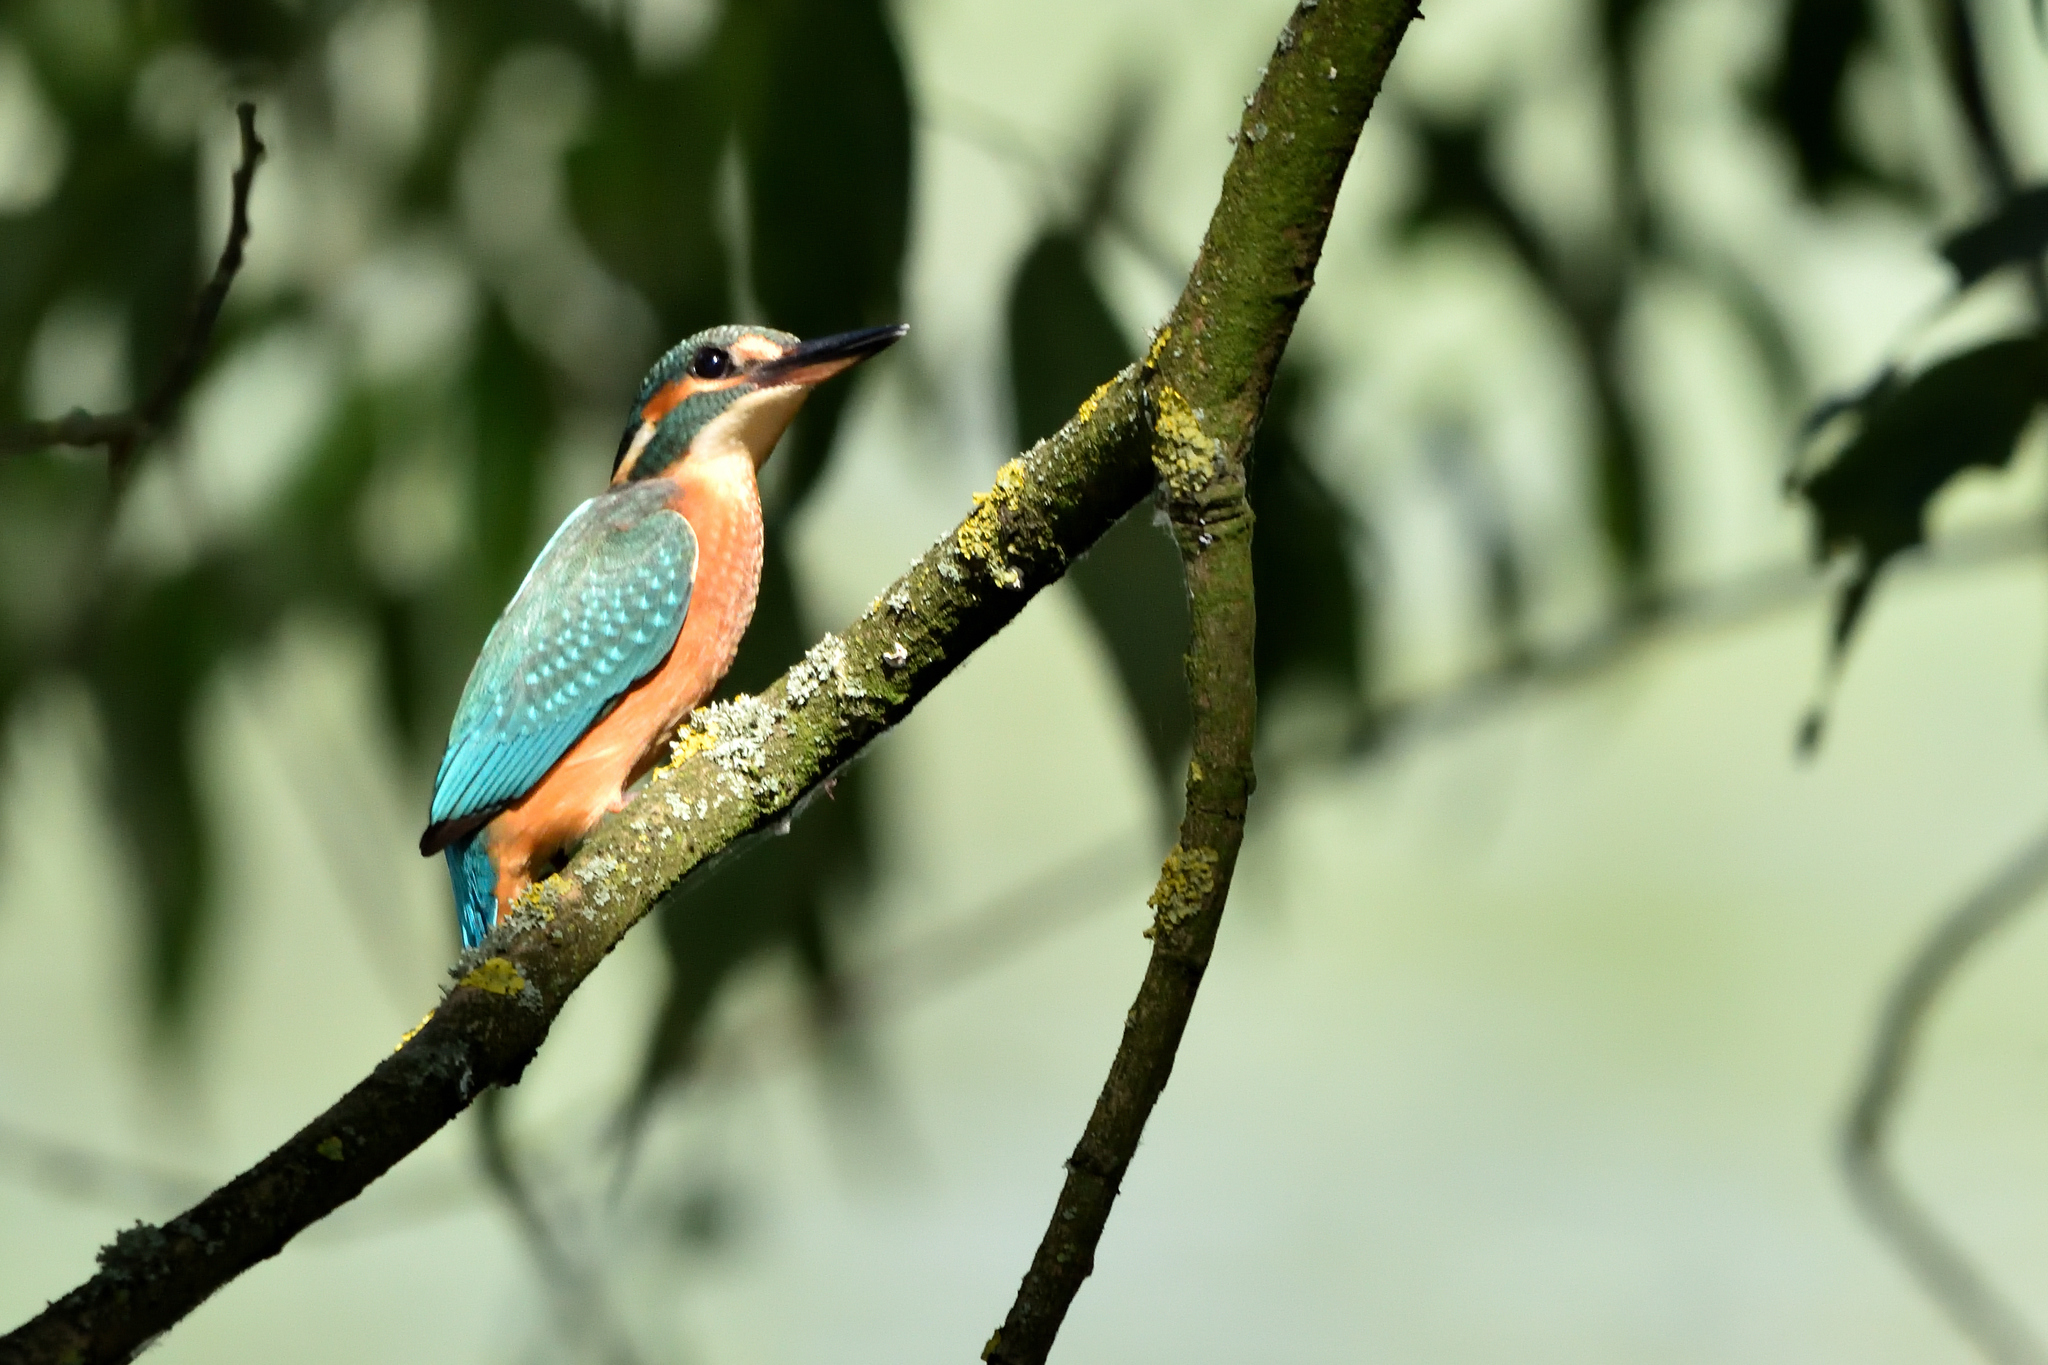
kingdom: Animalia
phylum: Chordata
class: Aves
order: Coraciiformes
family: Alcedinidae
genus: Alcedo
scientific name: Alcedo atthis
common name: Common kingfisher
